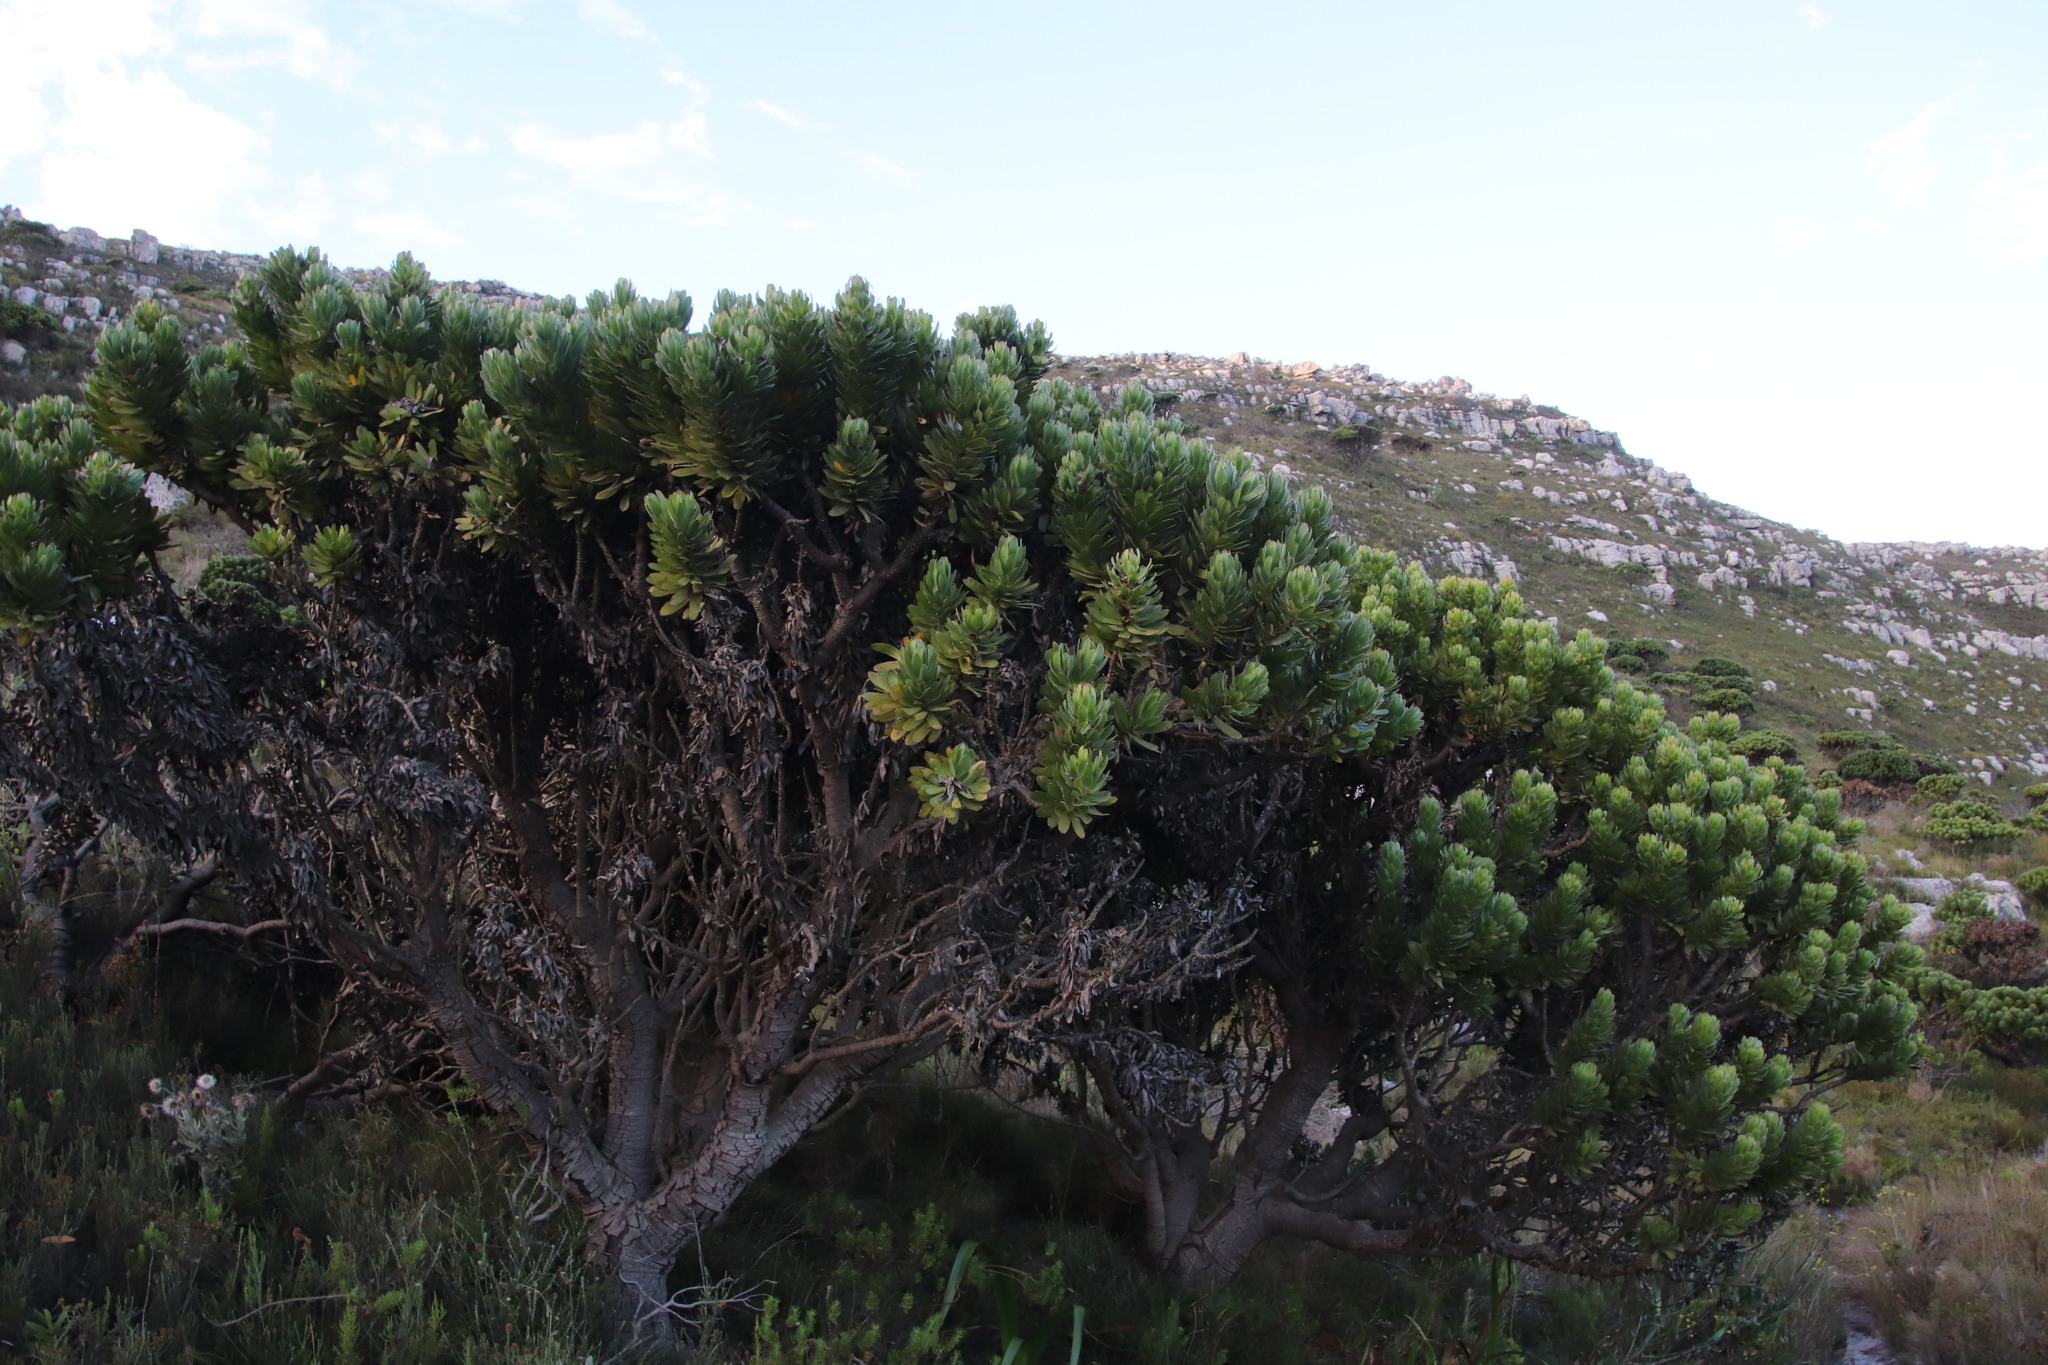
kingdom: Plantae
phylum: Tracheophyta
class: Magnoliopsida
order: Proteales
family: Proteaceae
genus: Mimetes
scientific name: Mimetes fimbriifolius
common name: Fringed bottlebrush
